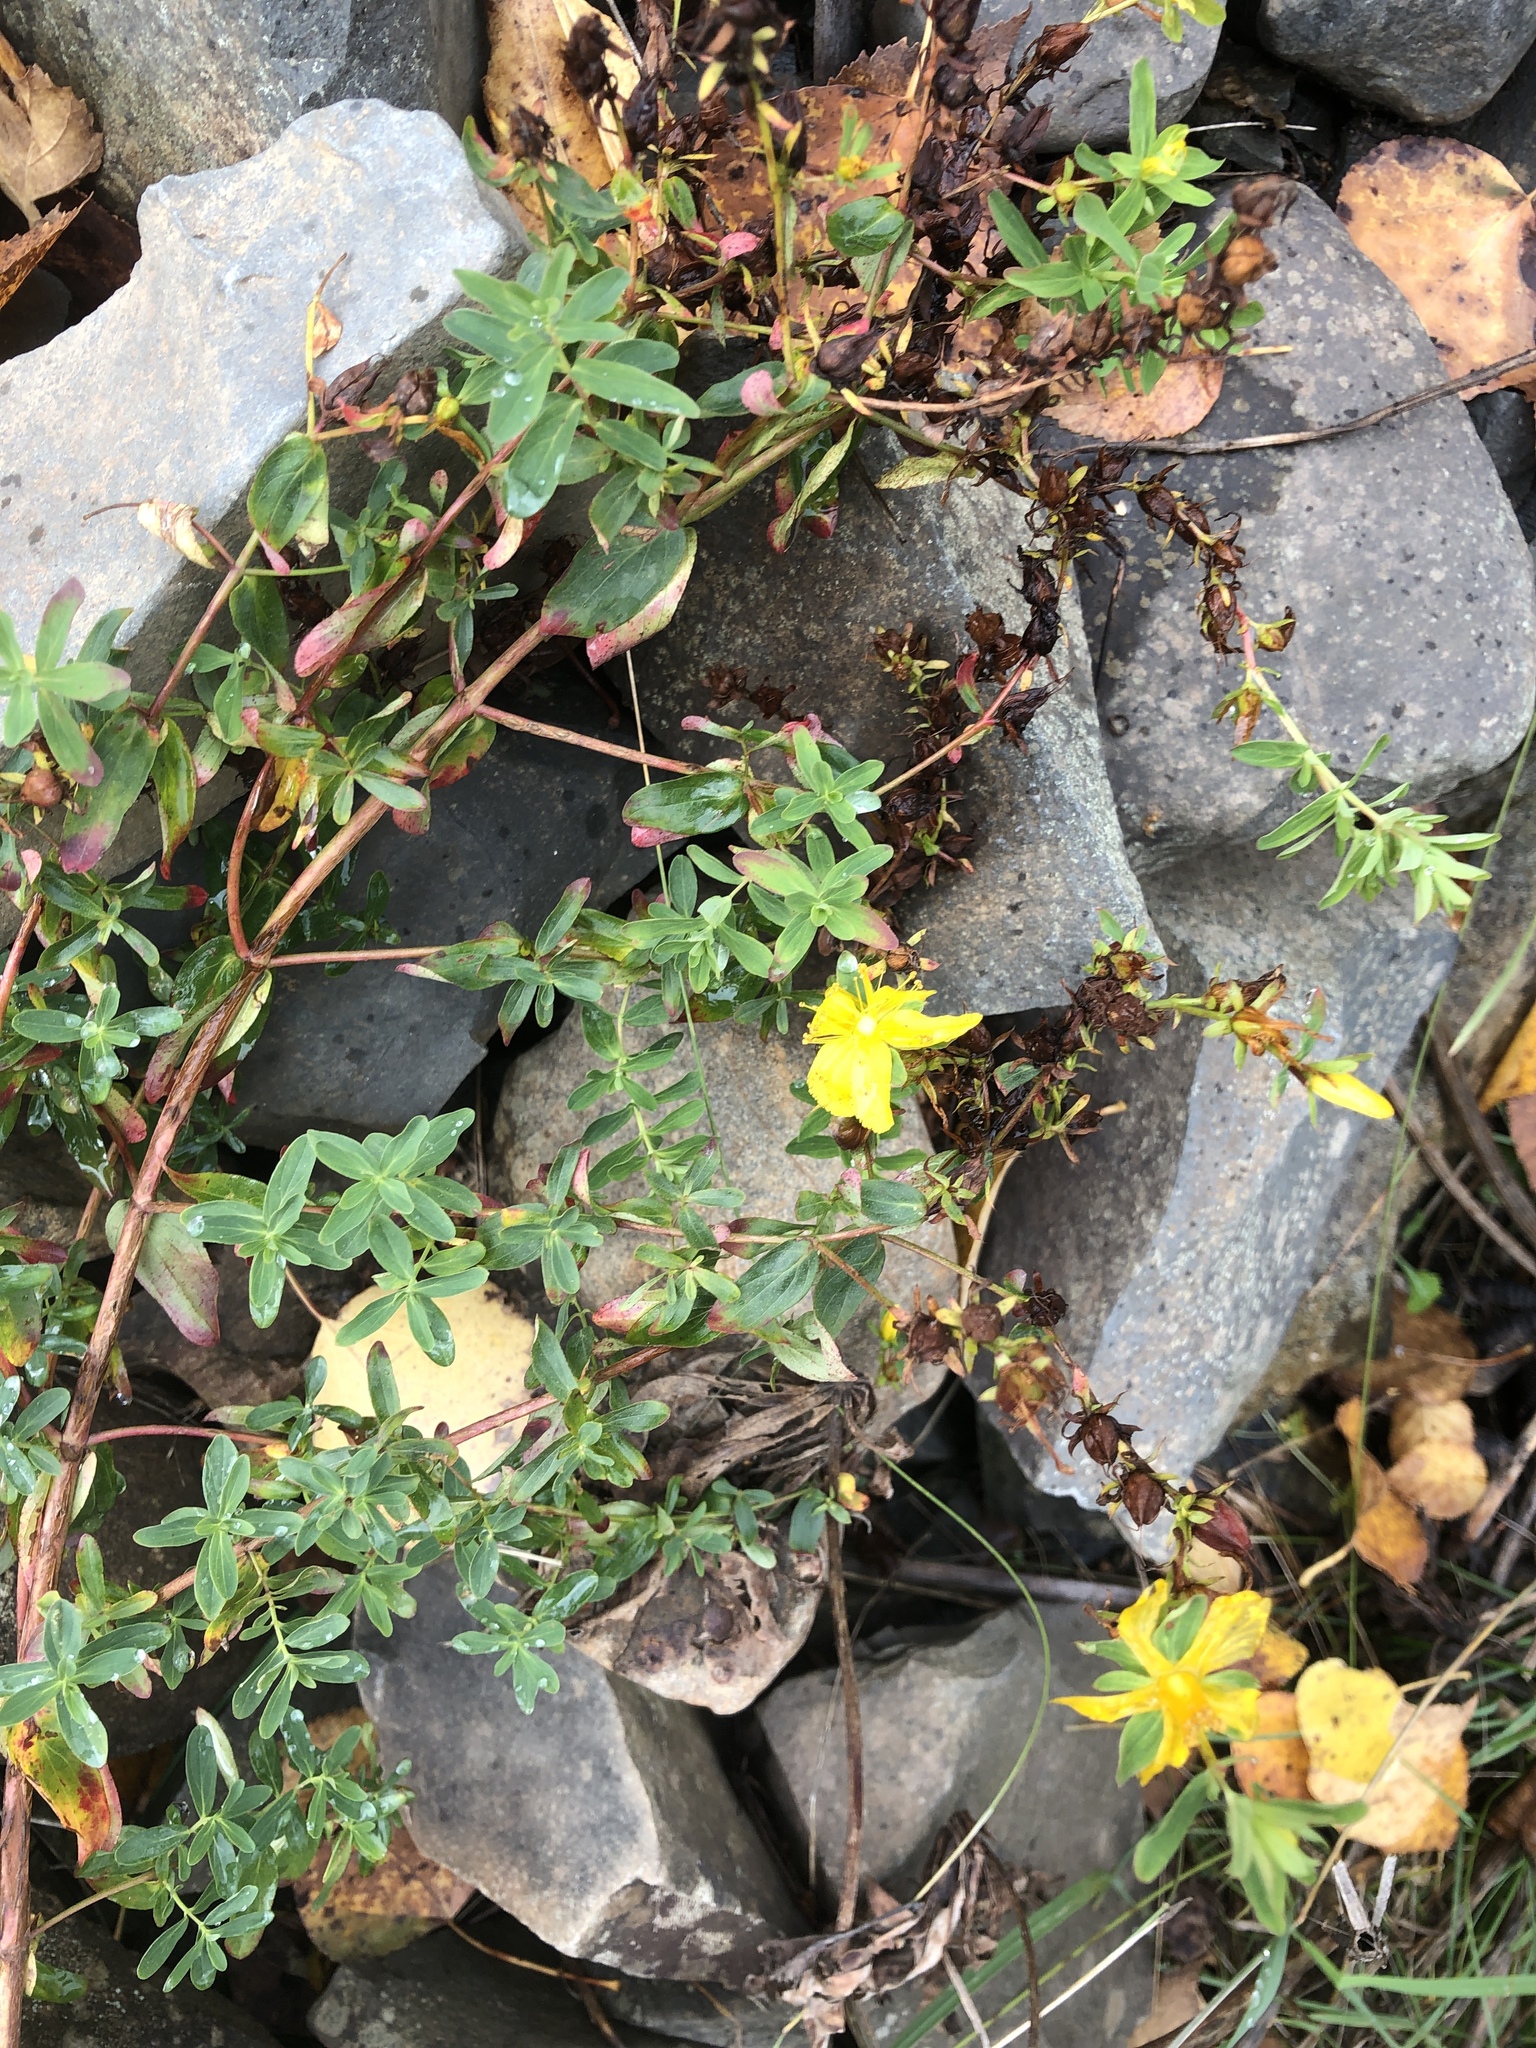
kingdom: Plantae
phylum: Tracheophyta
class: Magnoliopsida
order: Malpighiales
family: Hypericaceae
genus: Hypericum
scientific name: Hypericum perforatum
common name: Common st. johnswort
